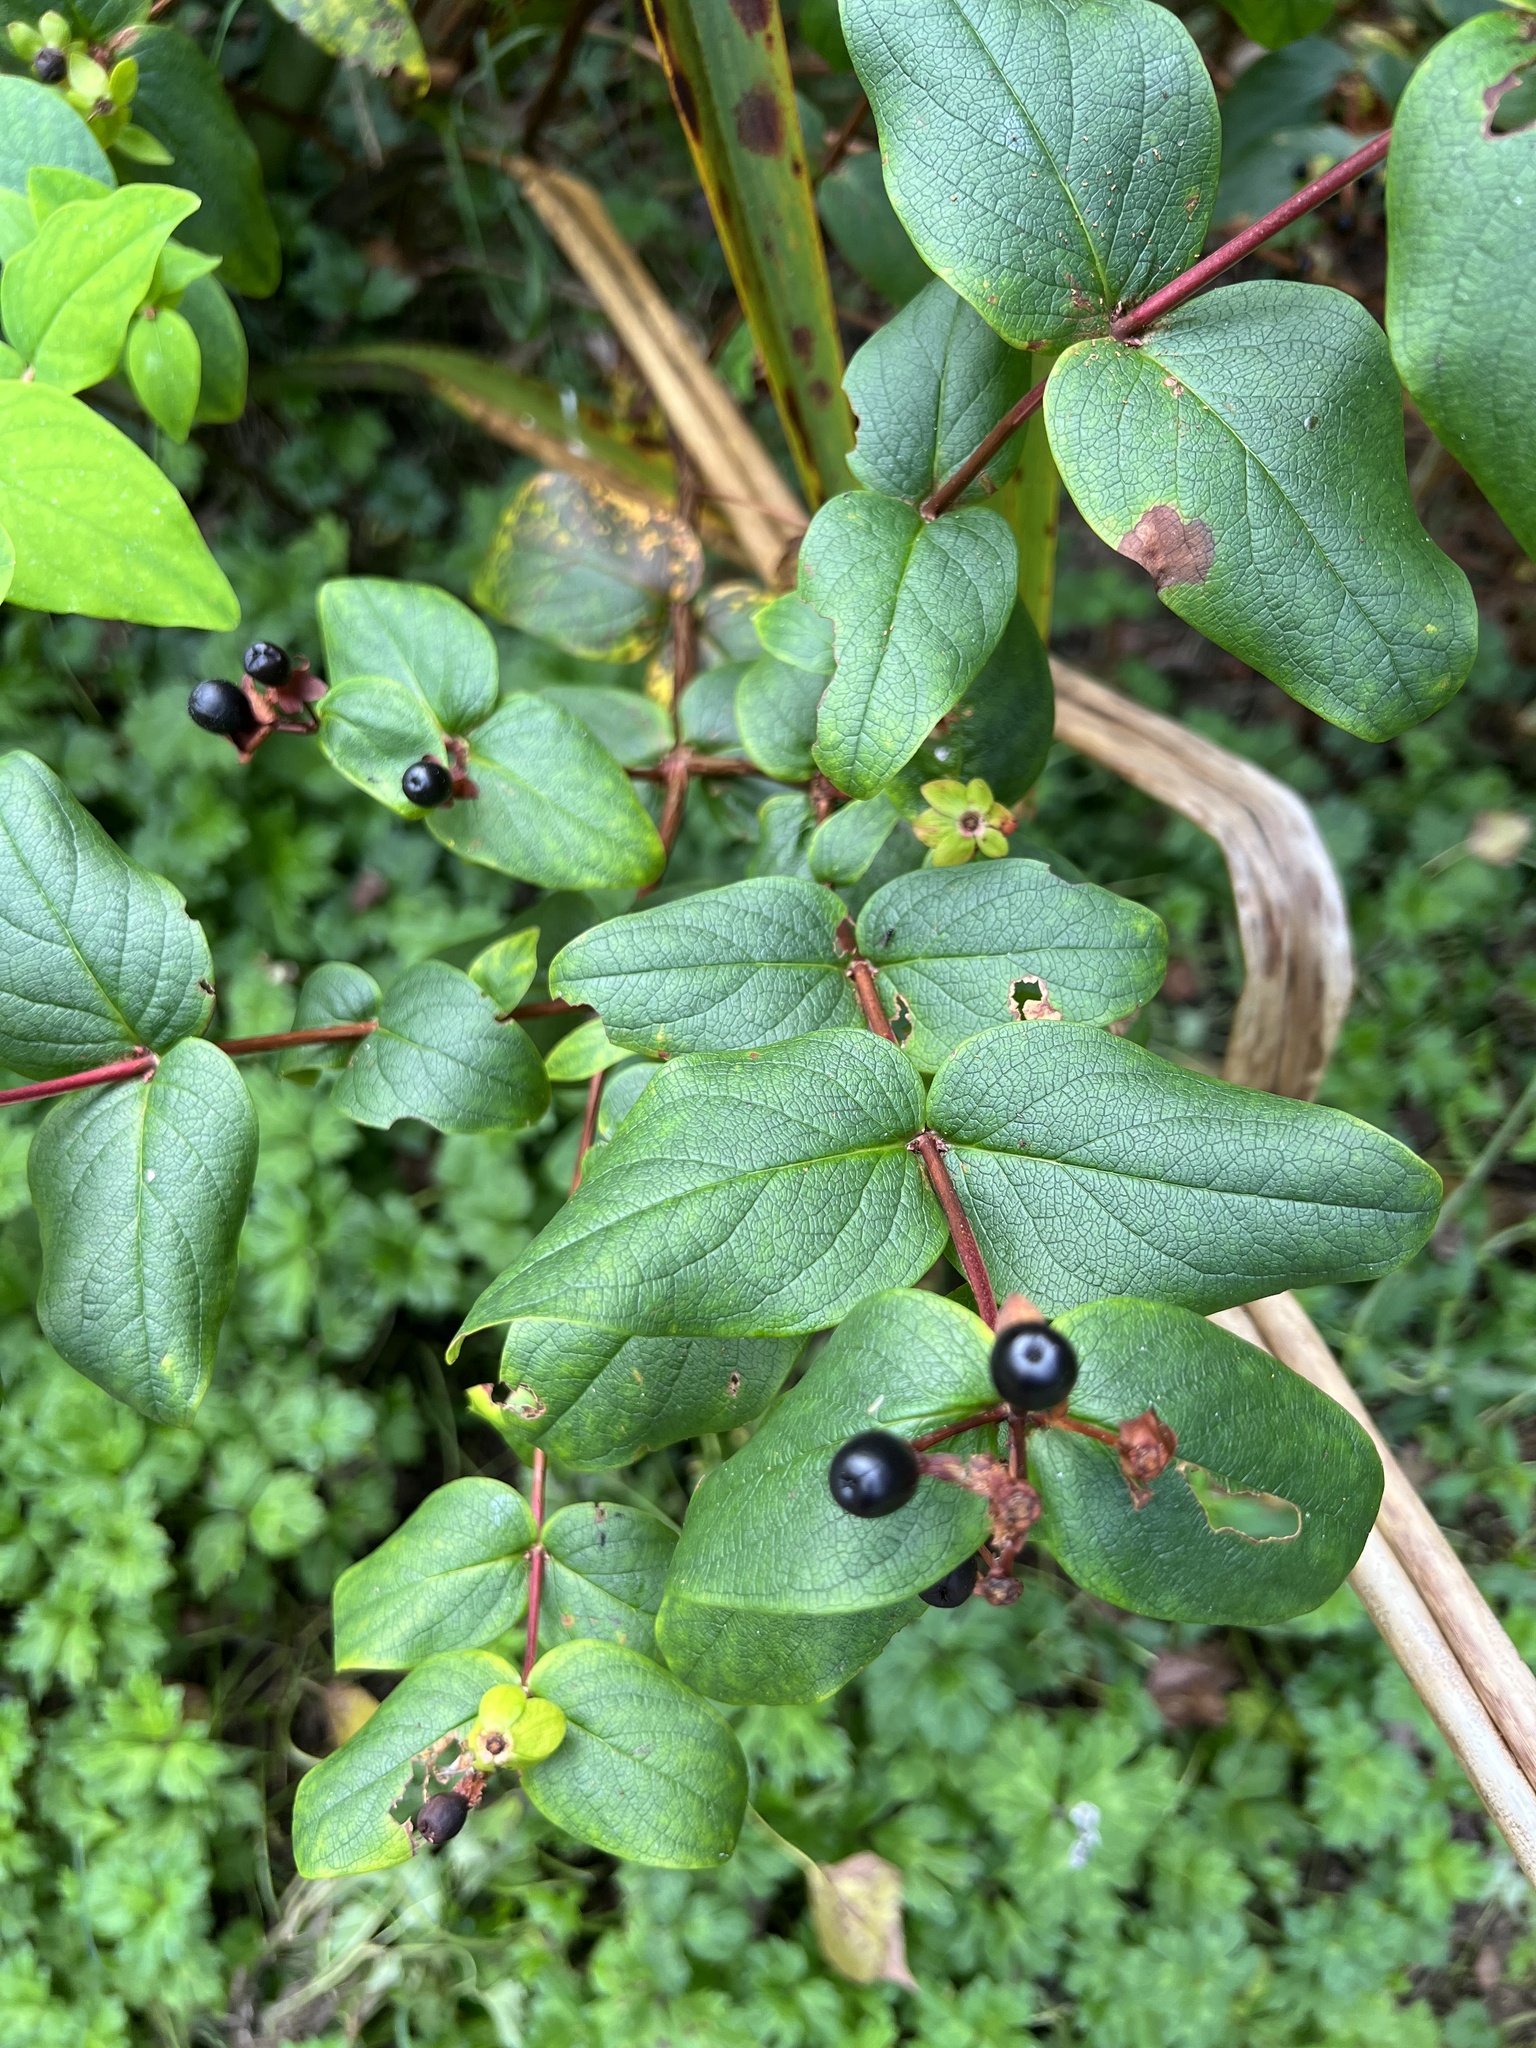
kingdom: Plantae
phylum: Tracheophyta
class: Magnoliopsida
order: Malpighiales
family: Hypericaceae
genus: Hypericum
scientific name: Hypericum androsaemum
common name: Sweet-amber
